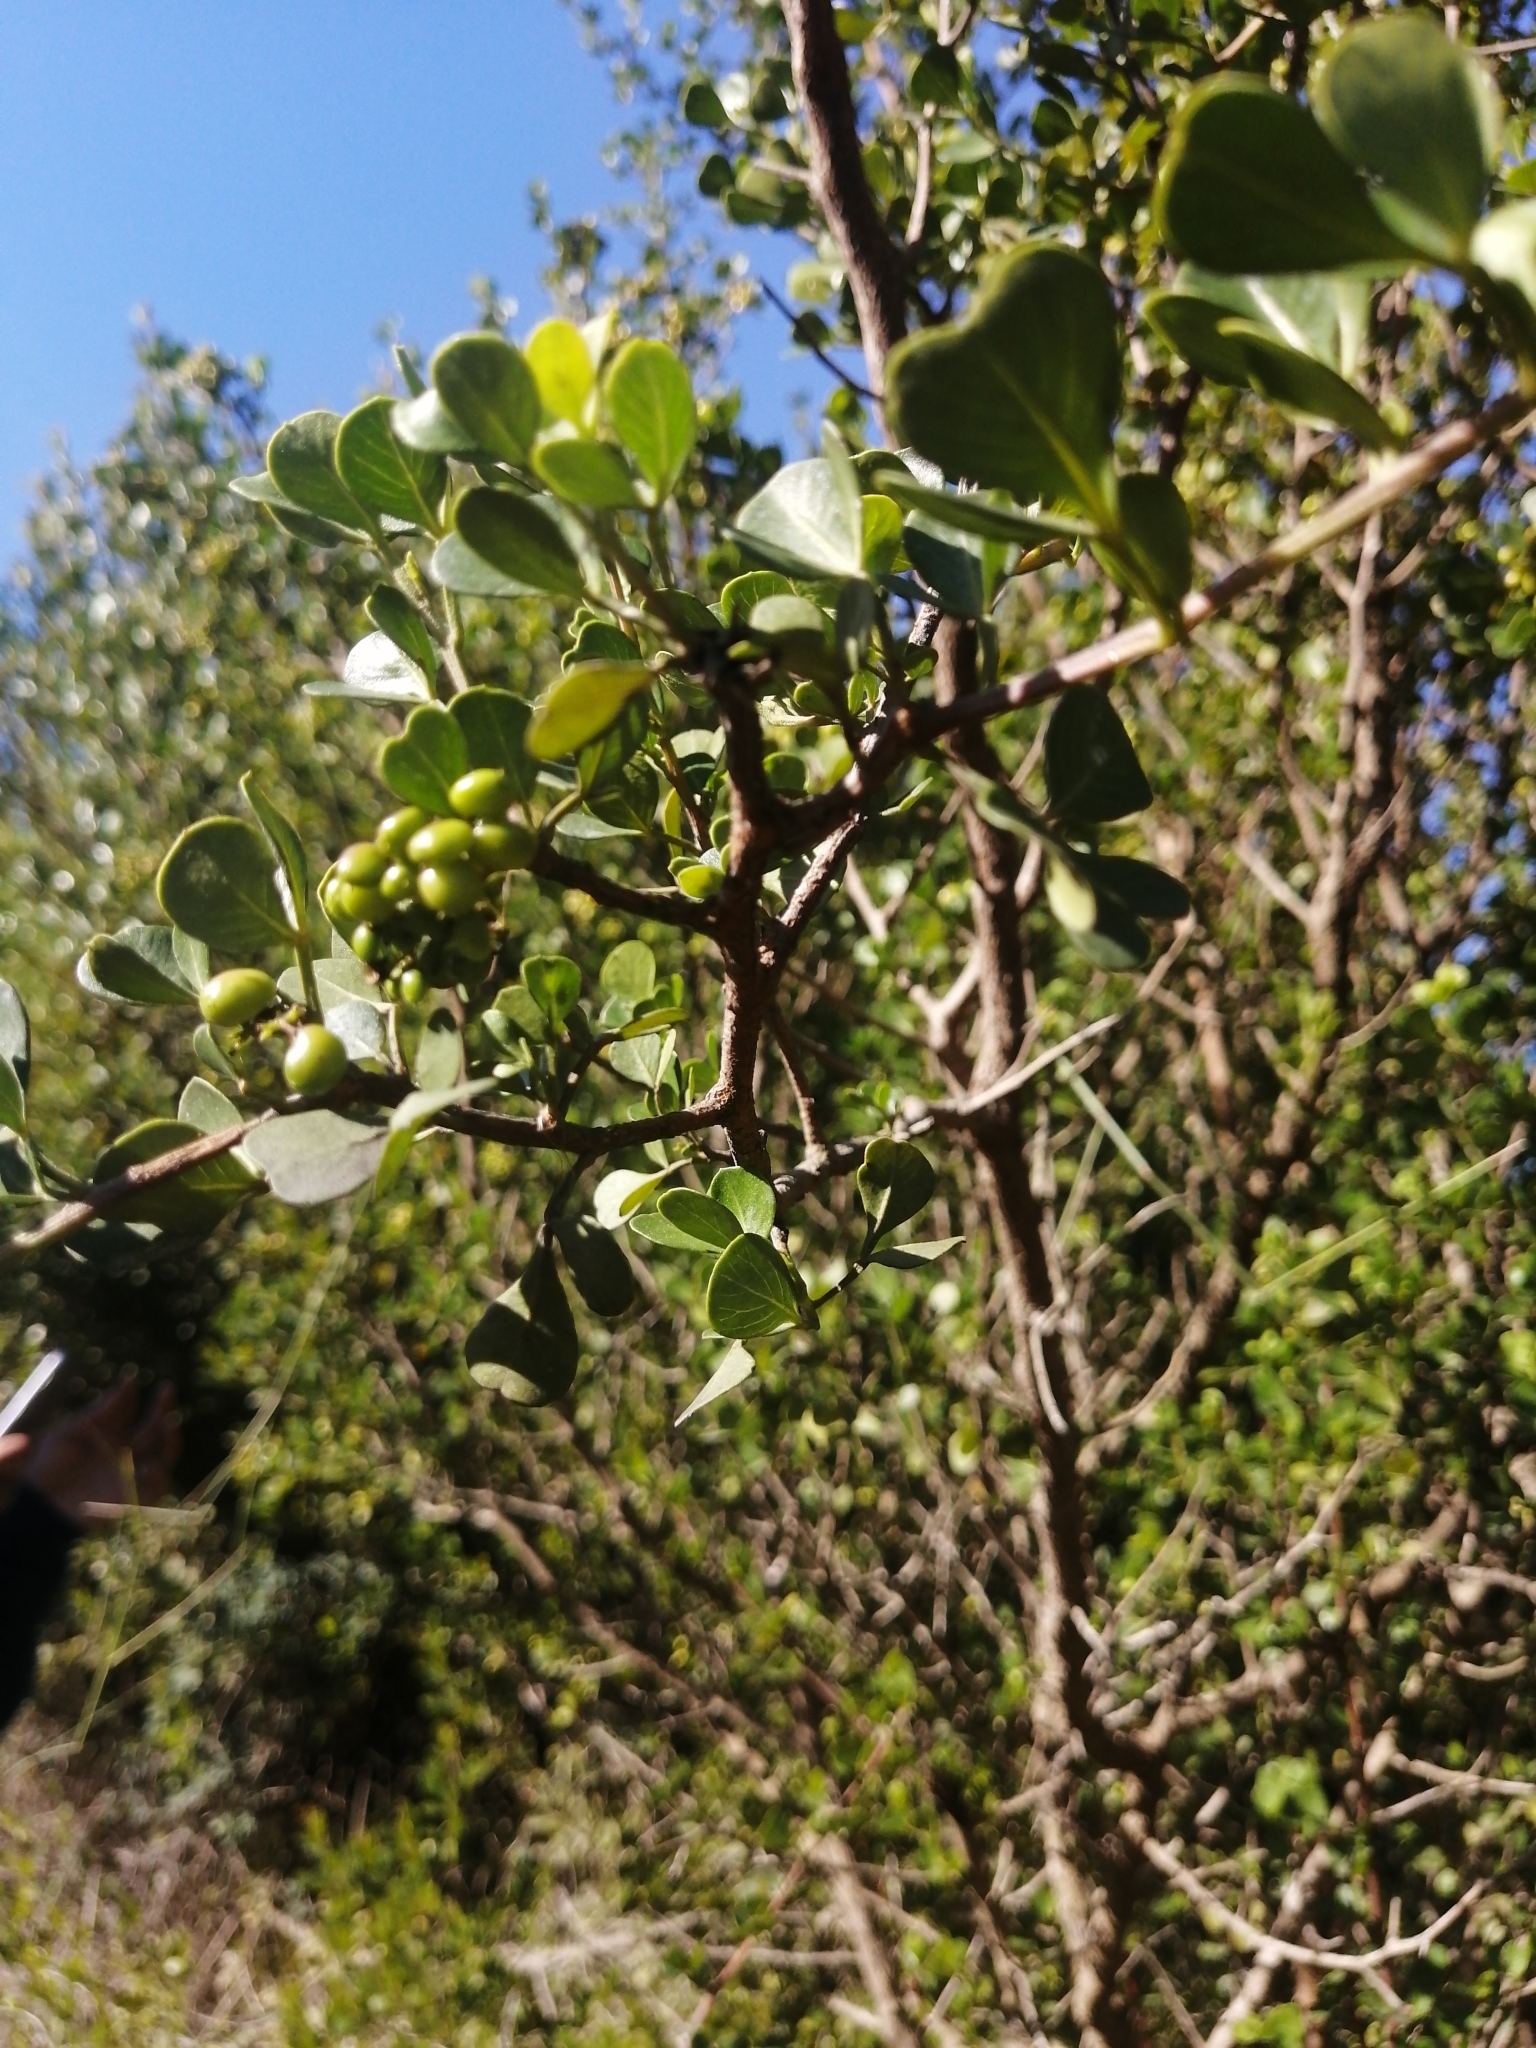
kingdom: Plantae
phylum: Tracheophyta
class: Magnoliopsida
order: Sapindales
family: Anacardiaceae
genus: Searsia
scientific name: Searsia glauca
